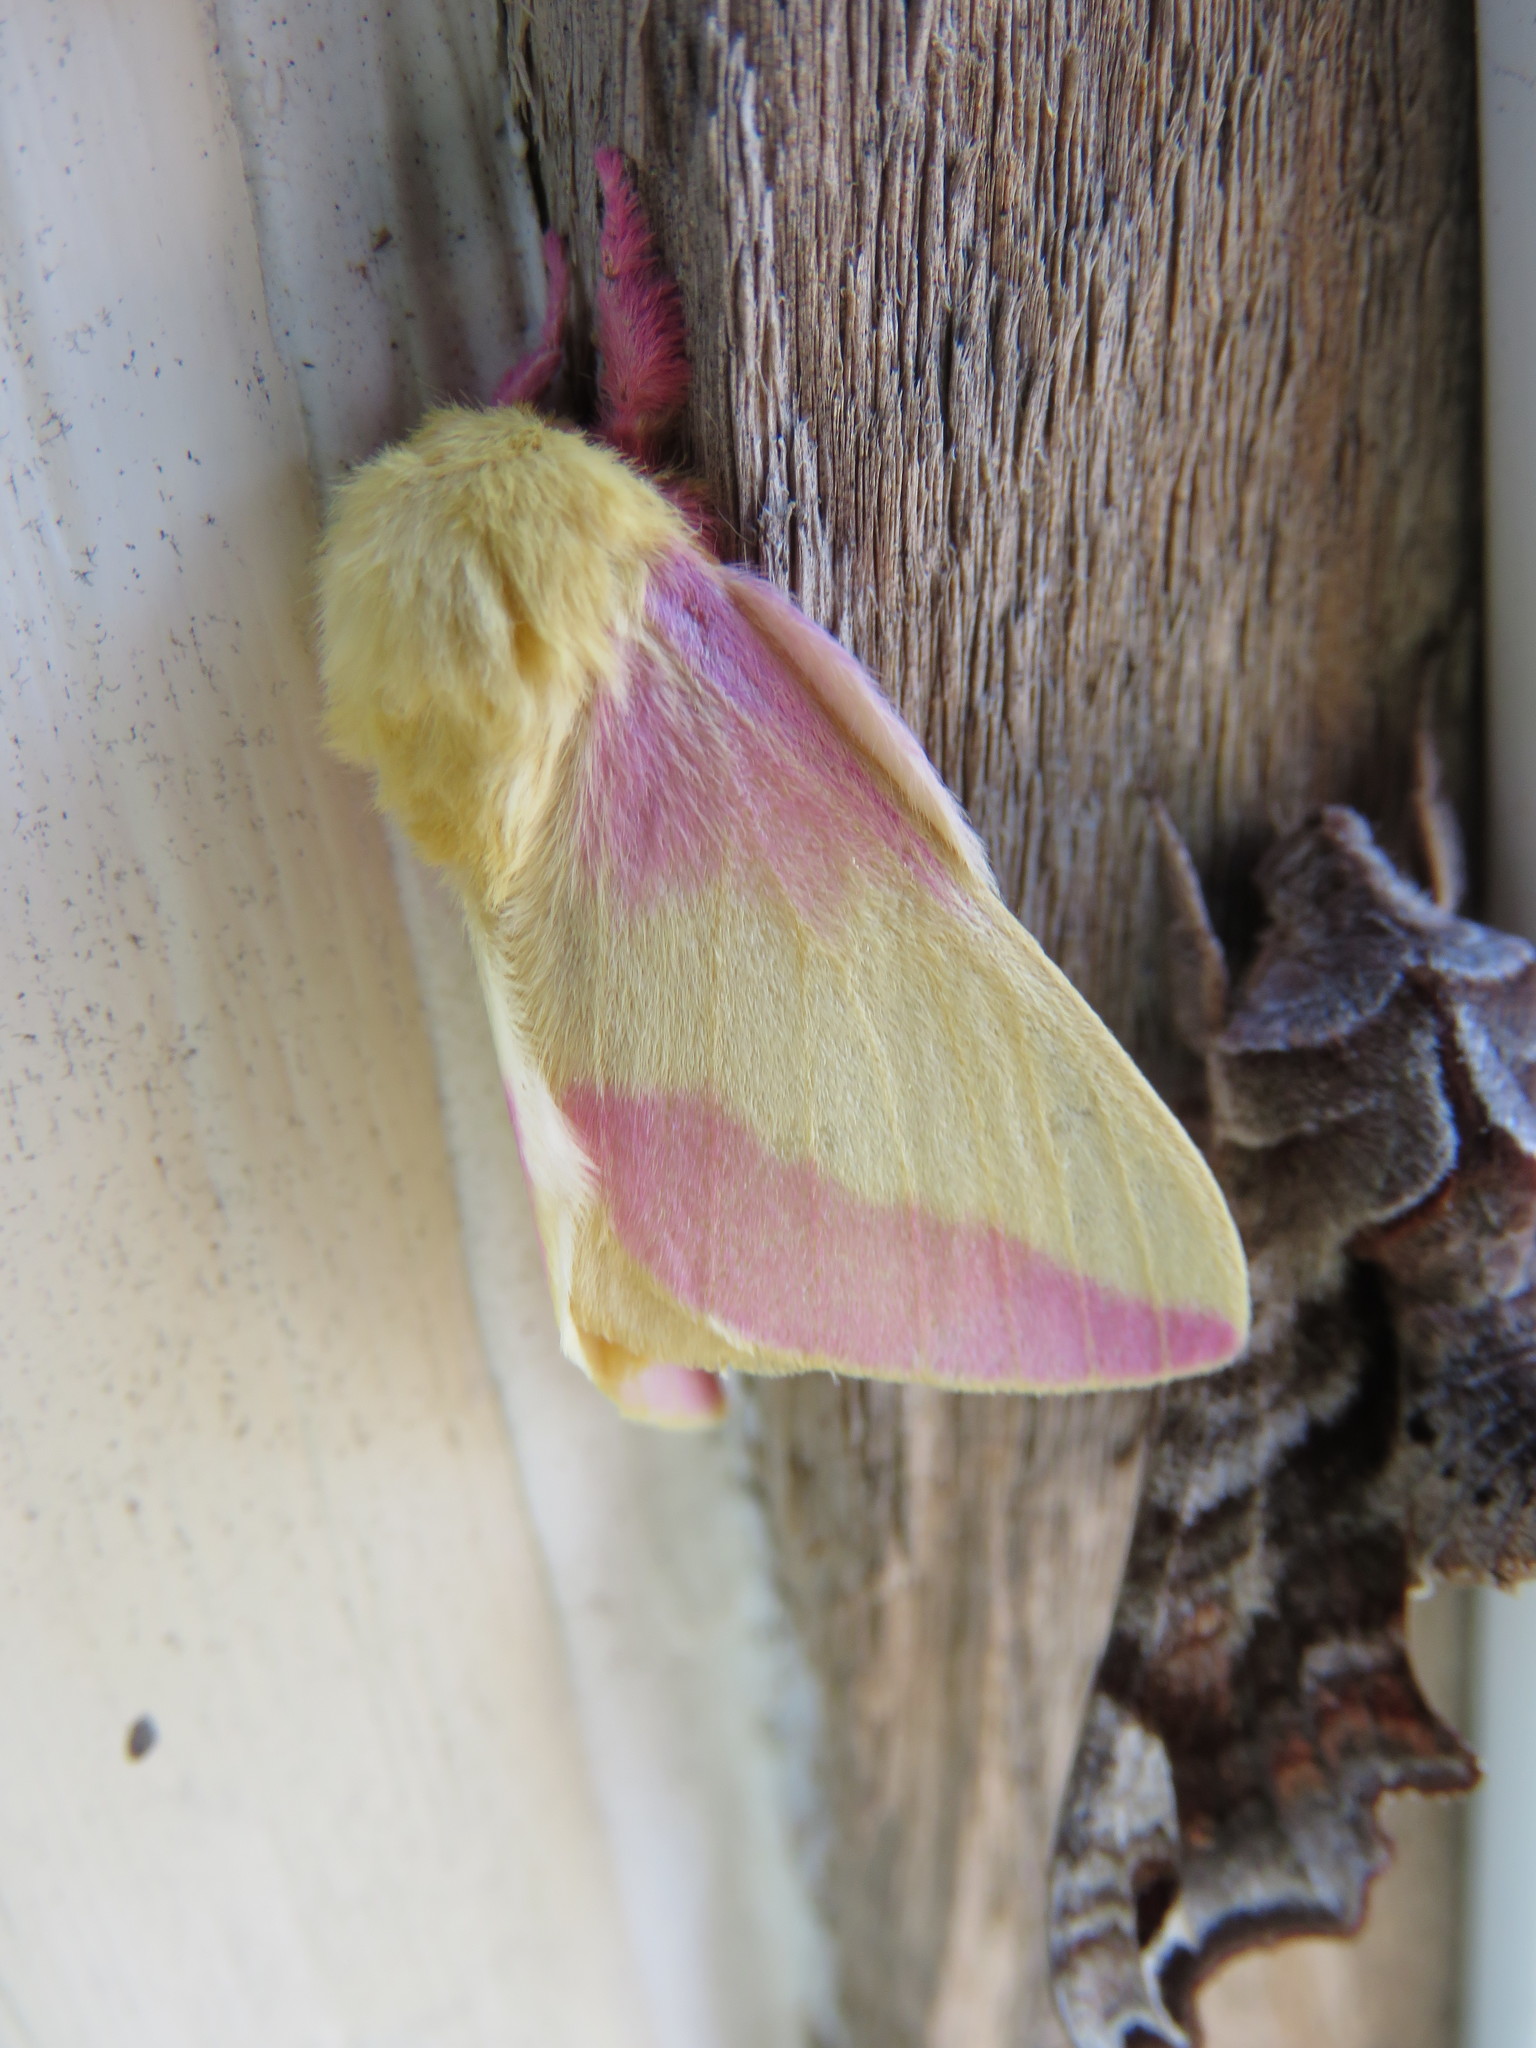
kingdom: Animalia
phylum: Arthropoda
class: Insecta
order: Lepidoptera
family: Saturniidae
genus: Dryocampa
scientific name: Dryocampa rubicunda
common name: Rosy maple moth
